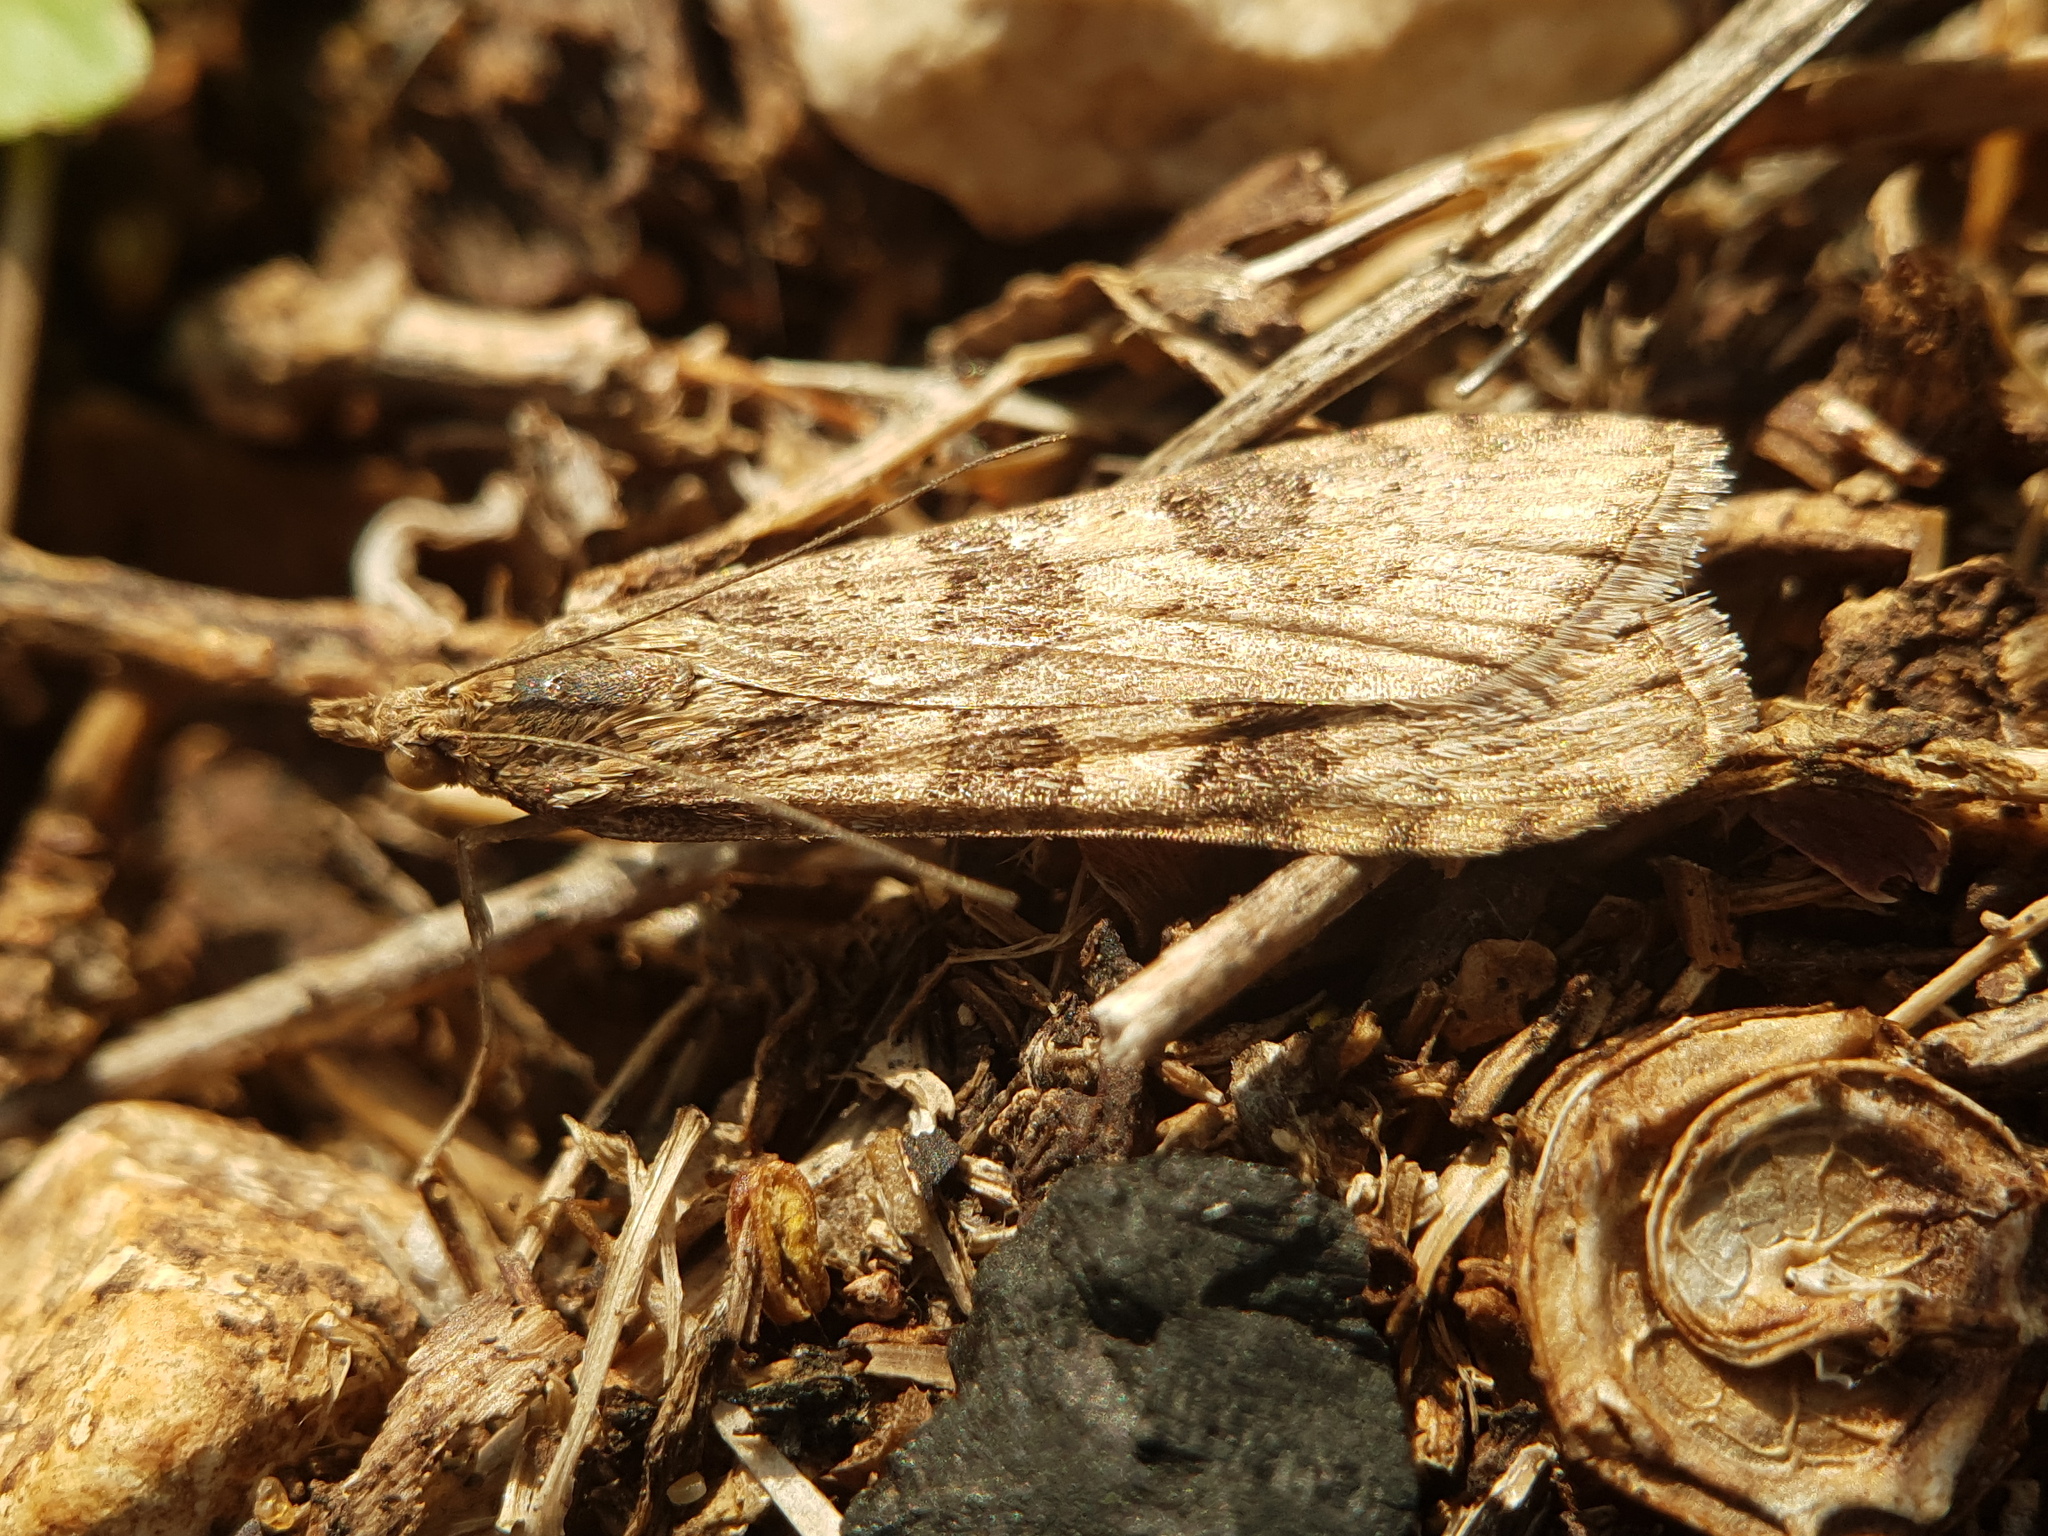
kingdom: Animalia
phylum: Arthropoda
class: Insecta
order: Lepidoptera
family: Crambidae
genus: Nomophila
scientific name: Nomophila noctuella
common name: Rush veneer
